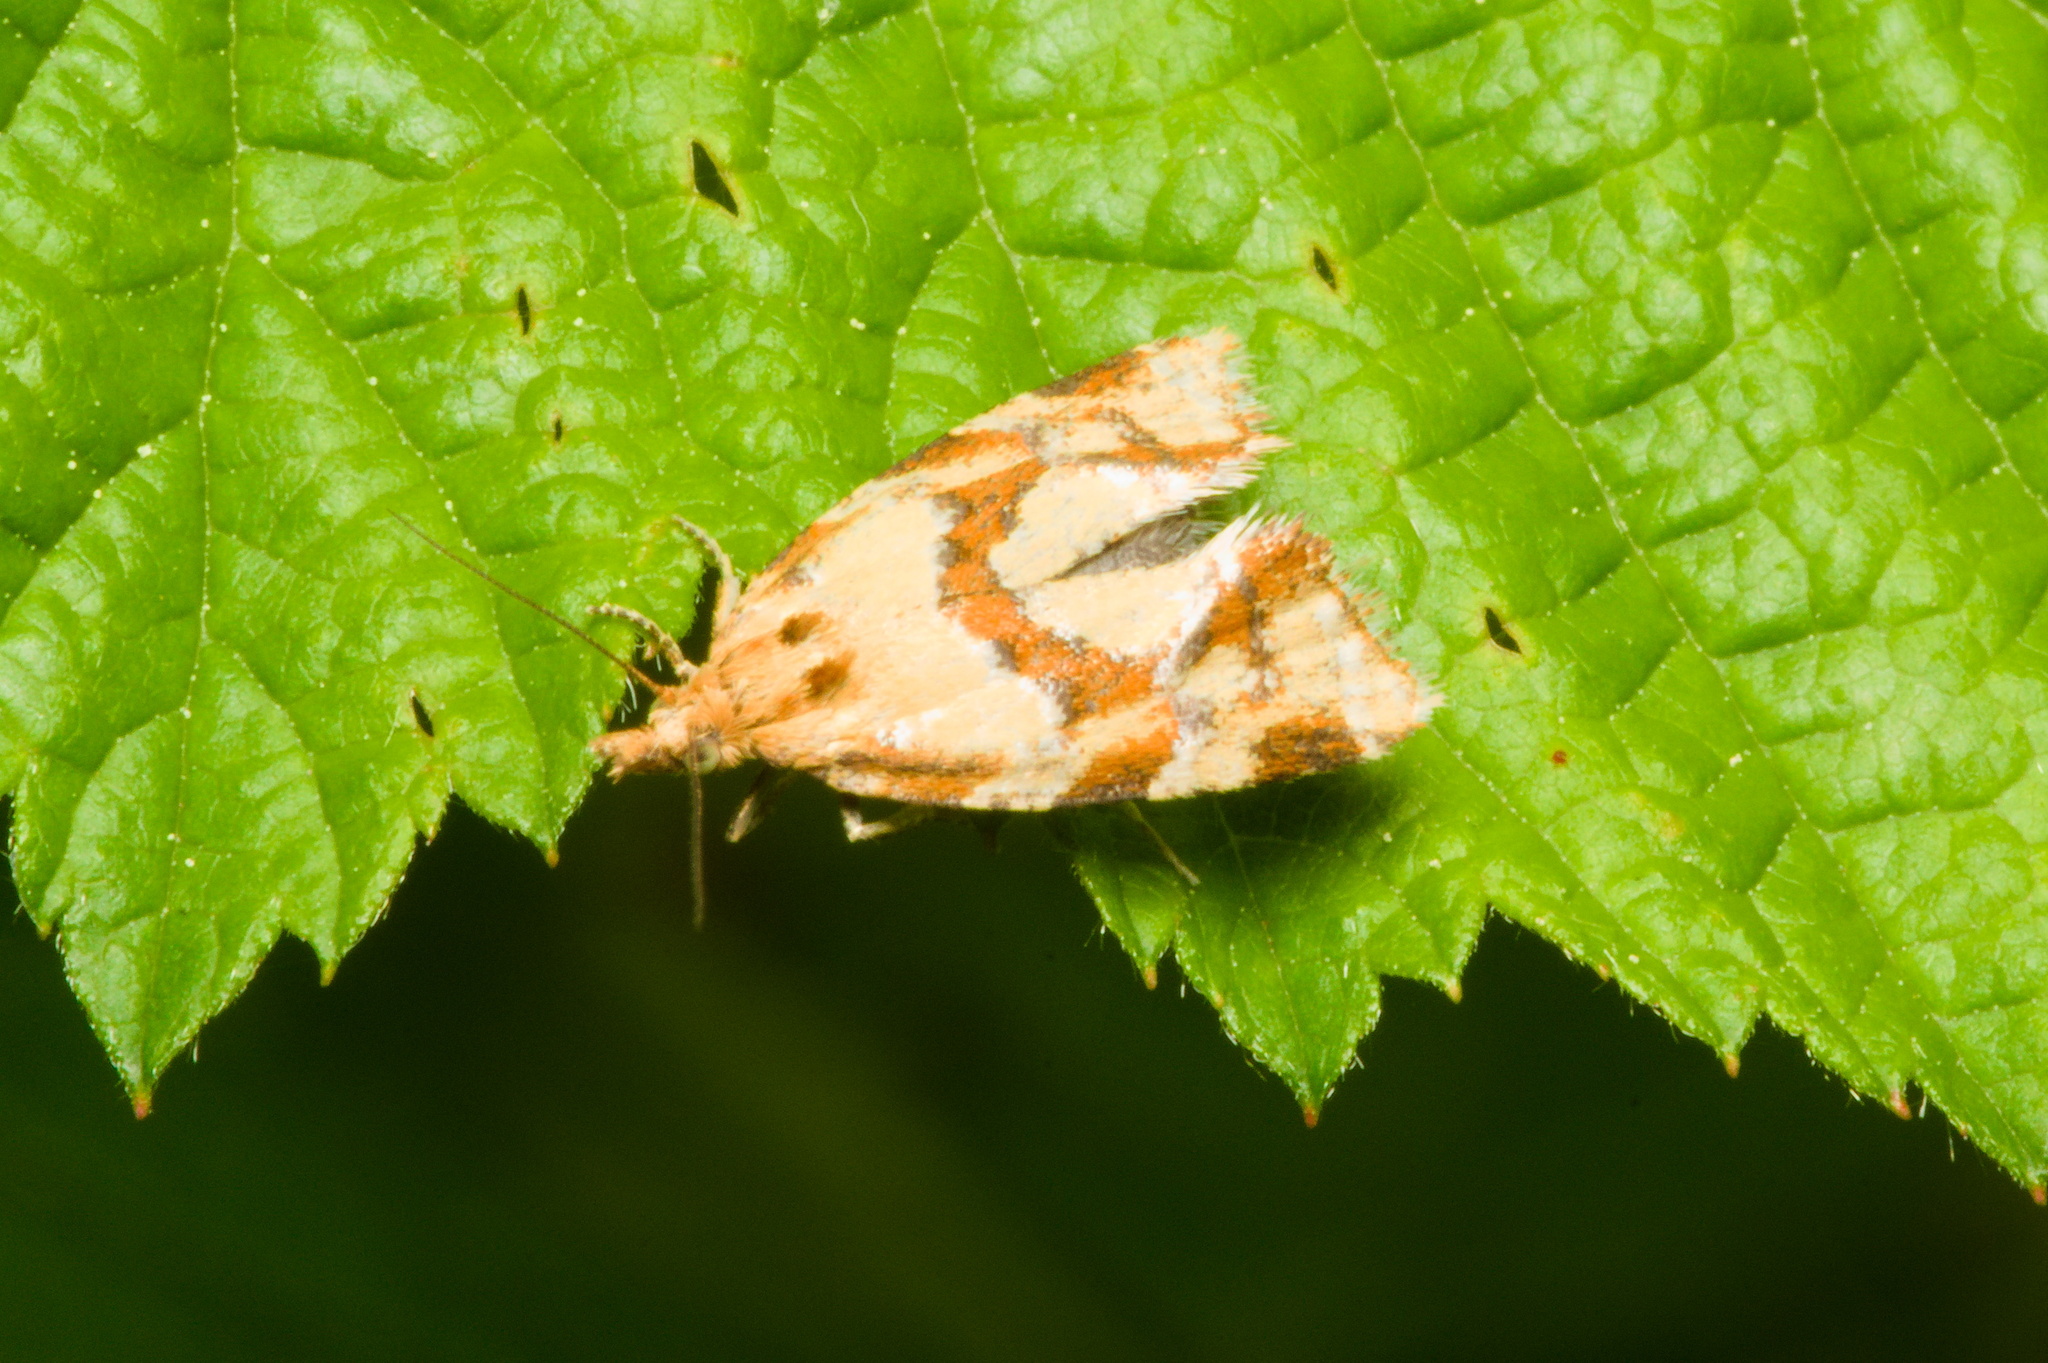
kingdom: Animalia
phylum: Arthropoda
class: Insecta
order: Lepidoptera
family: Tortricidae
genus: Aethes
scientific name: Aethes hartmanniana
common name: Scabious conch
